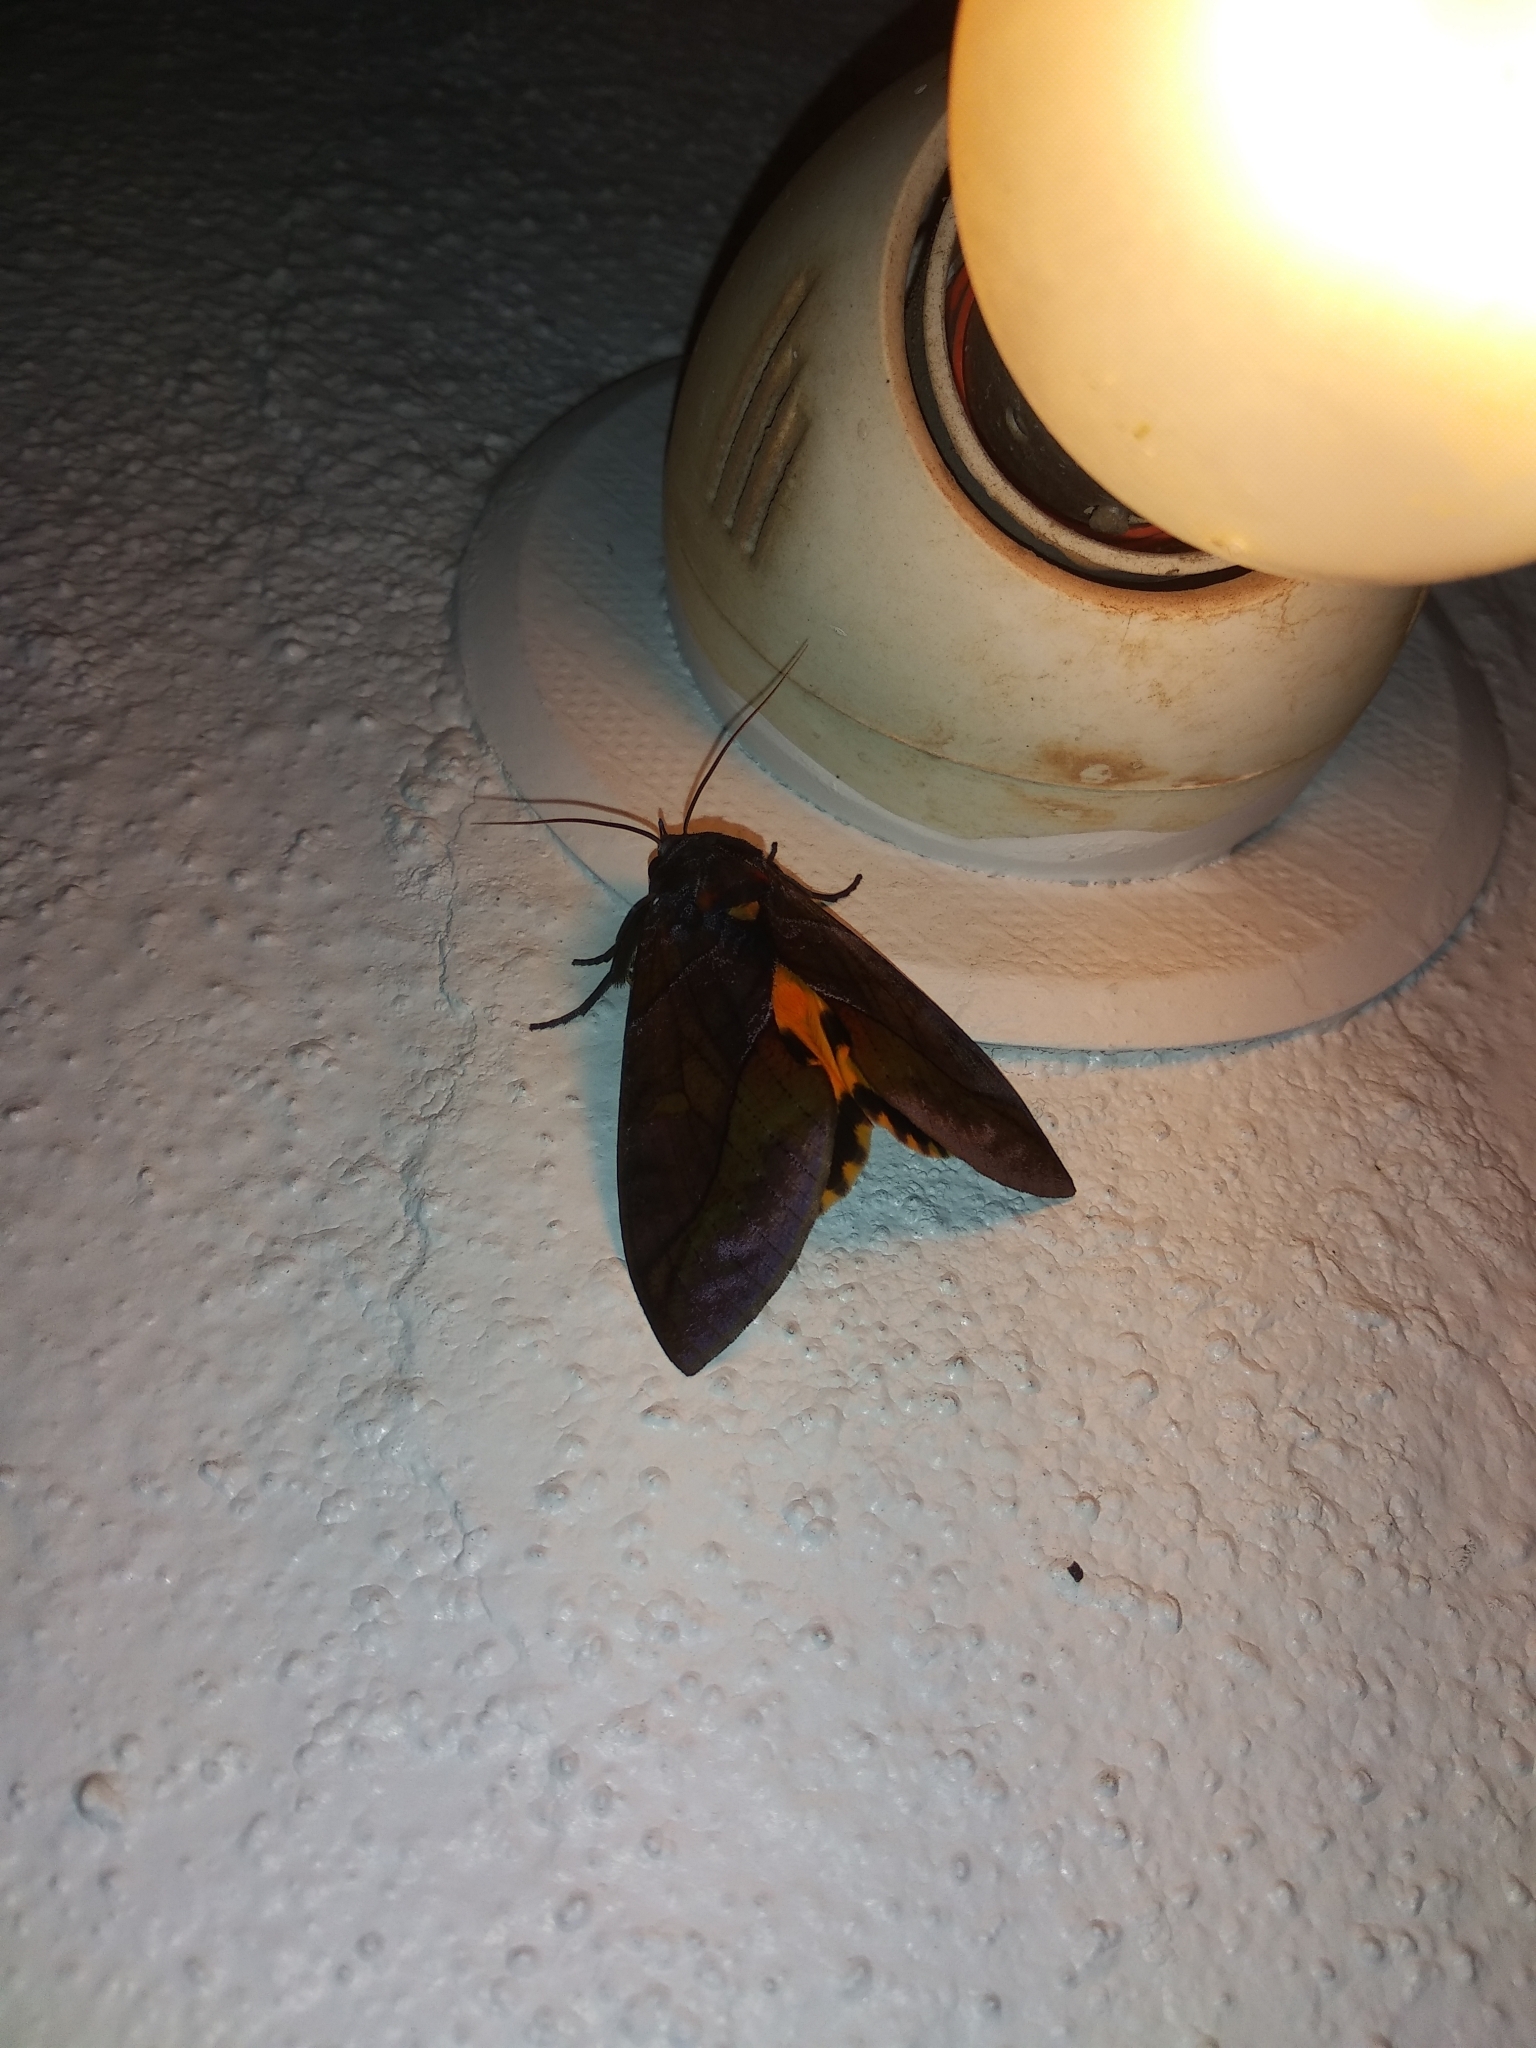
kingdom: Animalia
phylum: Arthropoda
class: Insecta
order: Lepidoptera
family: Erebidae
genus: Eudocima
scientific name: Eudocima homaena
